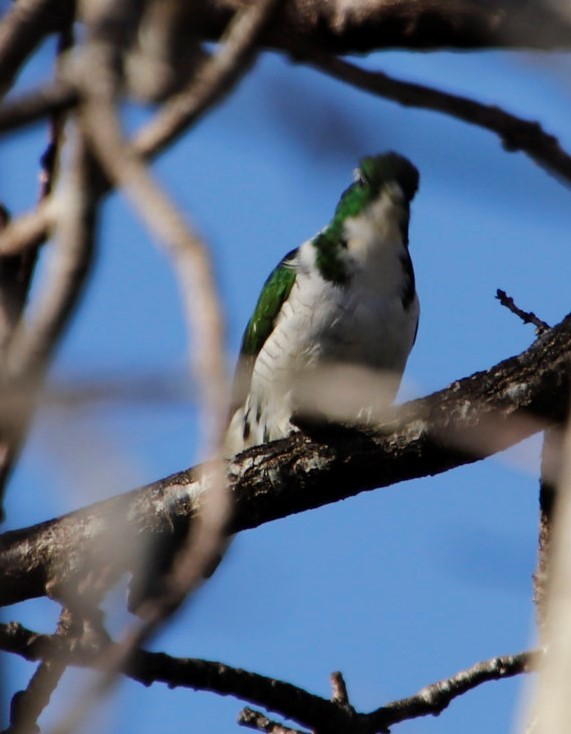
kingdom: Animalia
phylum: Chordata
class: Aves
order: Cuculiformes
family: Cuculidae
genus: Chrysococcyx
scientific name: Chrysococcyx klaas
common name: Klaas's cuckoo
